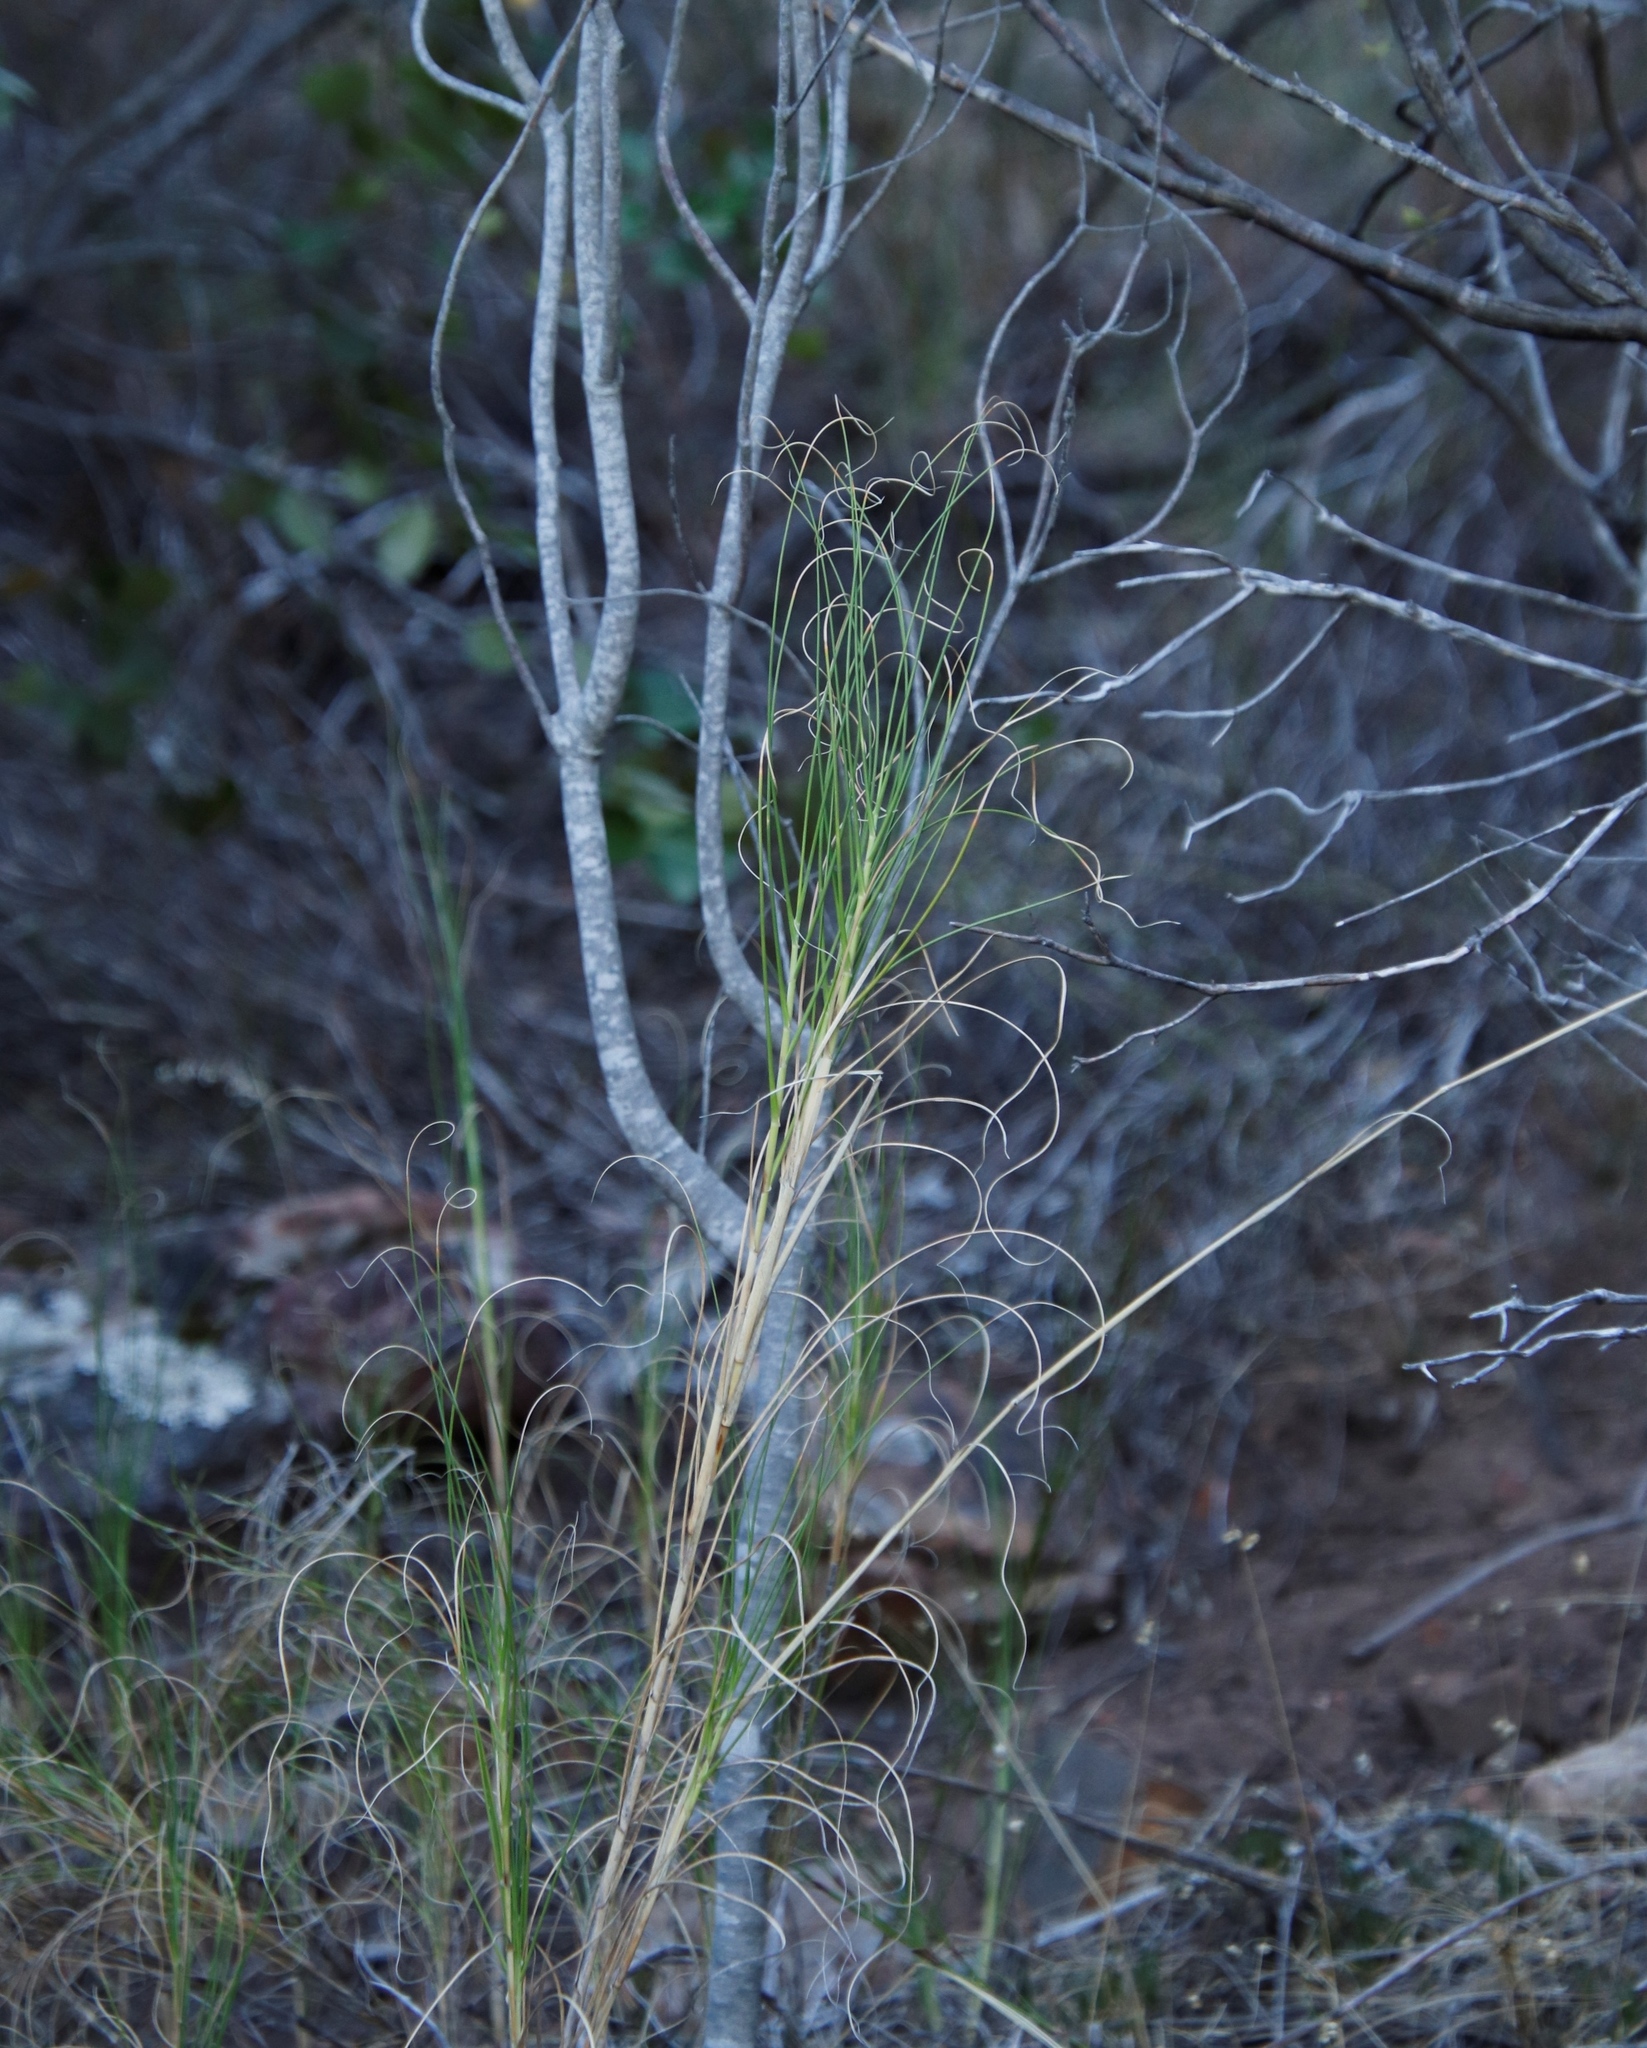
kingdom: Plantae
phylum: Tracheophyta
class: Liliopsida
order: Poales
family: Poaceae
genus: Pseudopentameris
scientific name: Pseudopentameris macrantha
